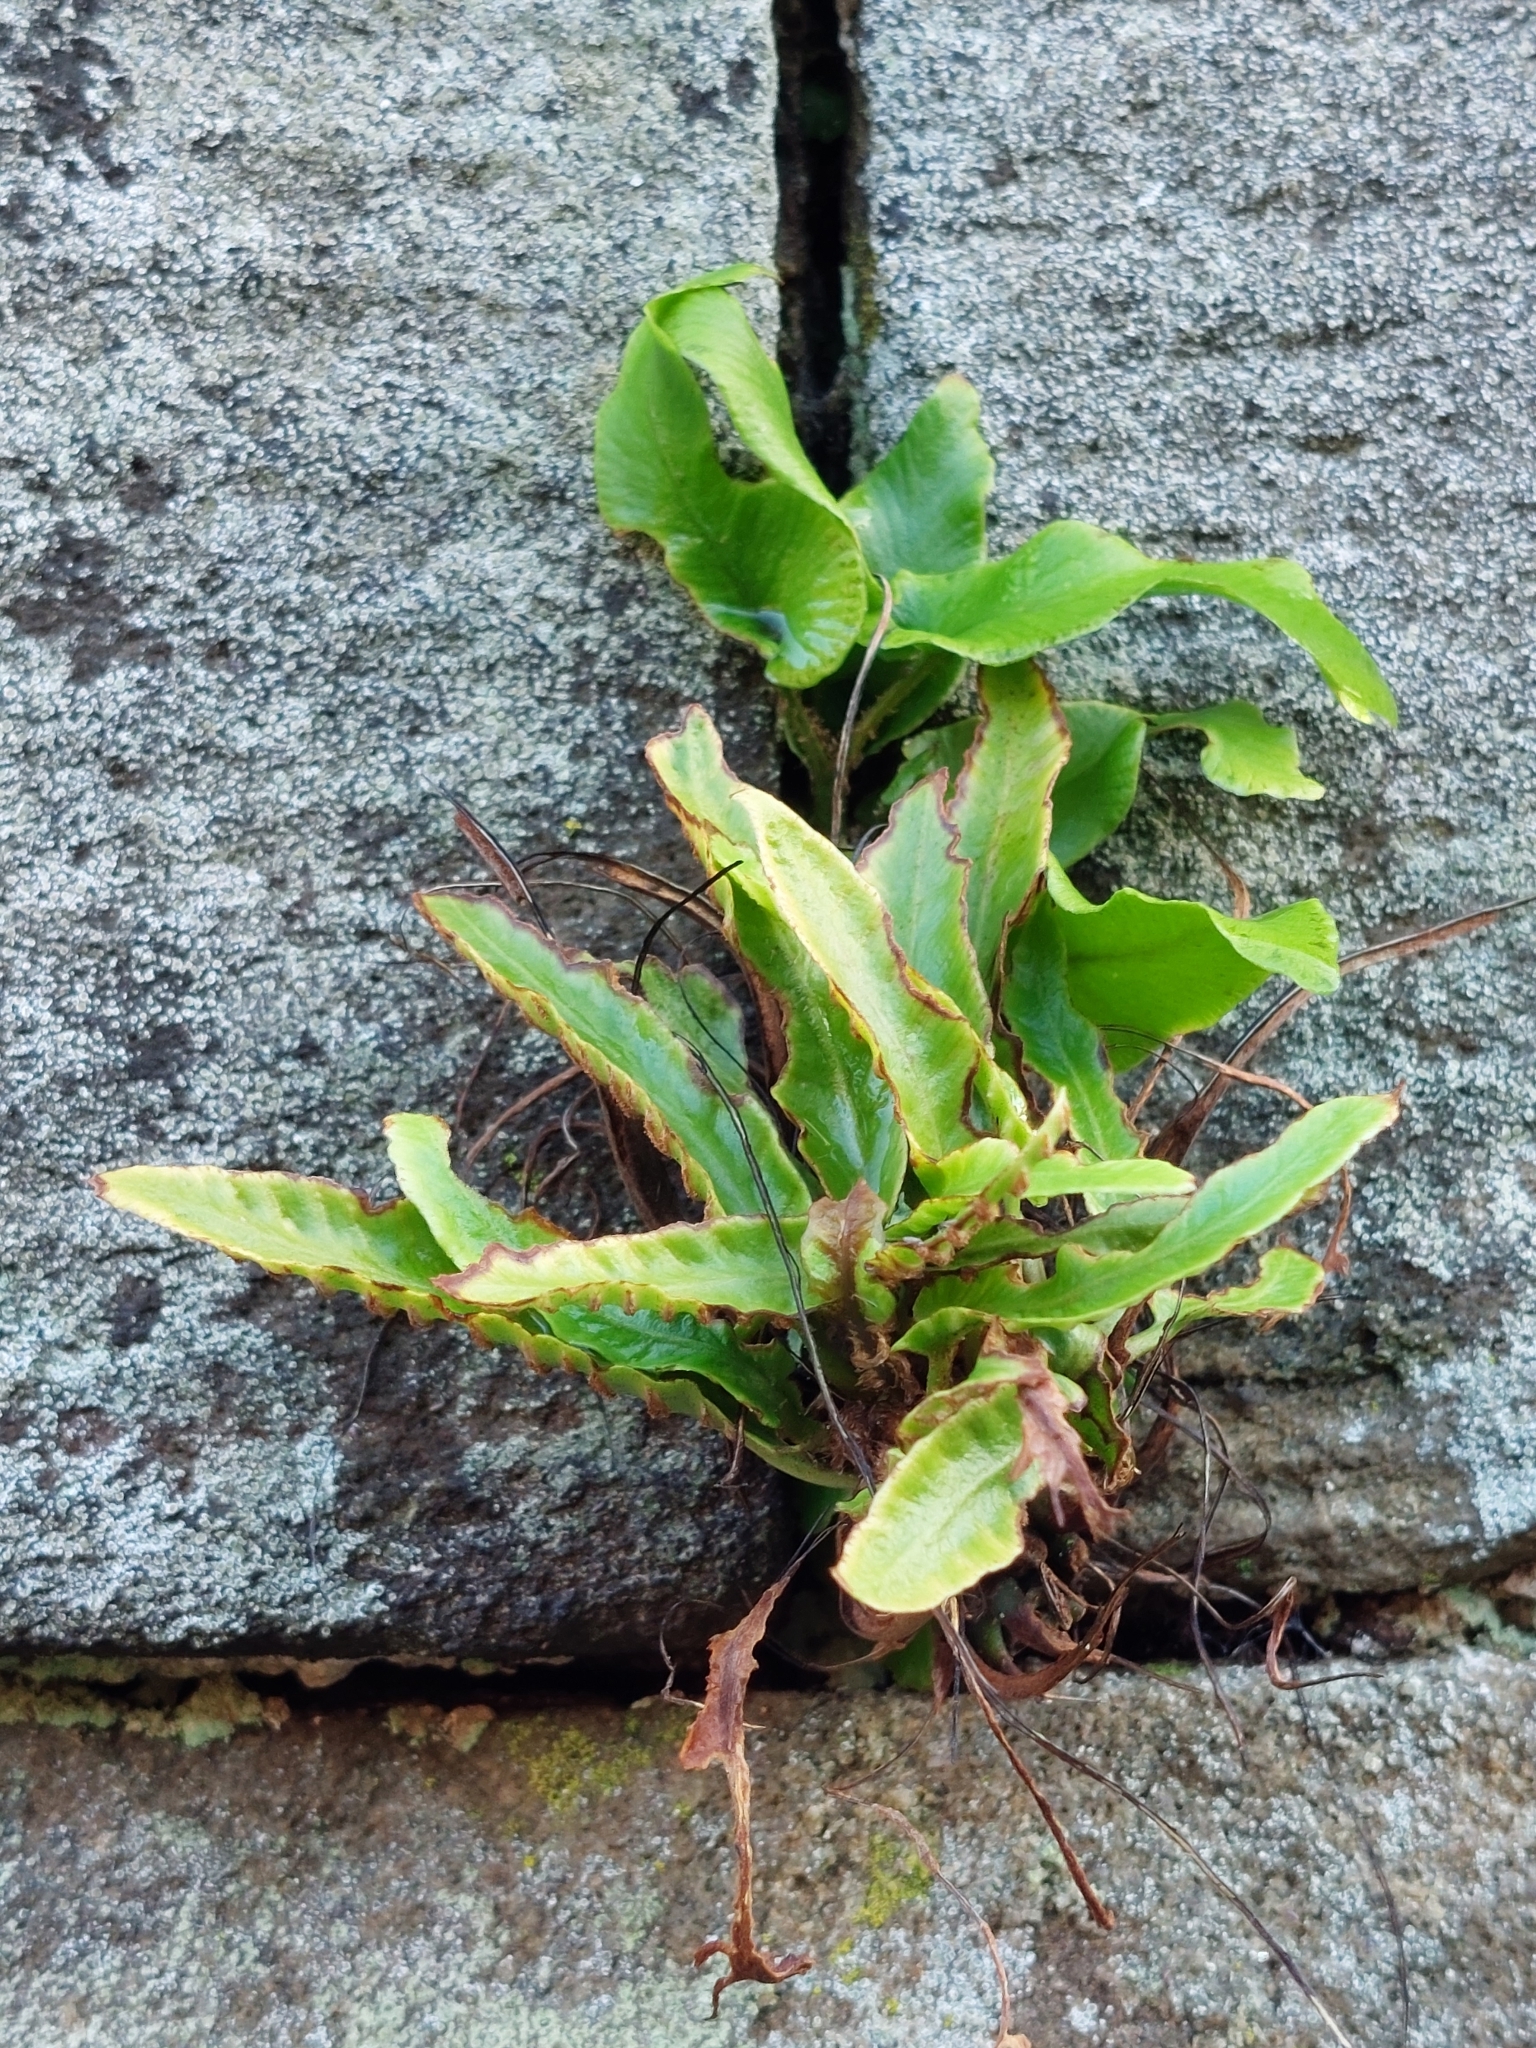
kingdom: Plantae
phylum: Tracheophyta
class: Polypodiopsida
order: Polypodiales
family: Aspleniaceae
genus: Asplenium
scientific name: Asplenium scolopendrium
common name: Hart's-tongue fern
